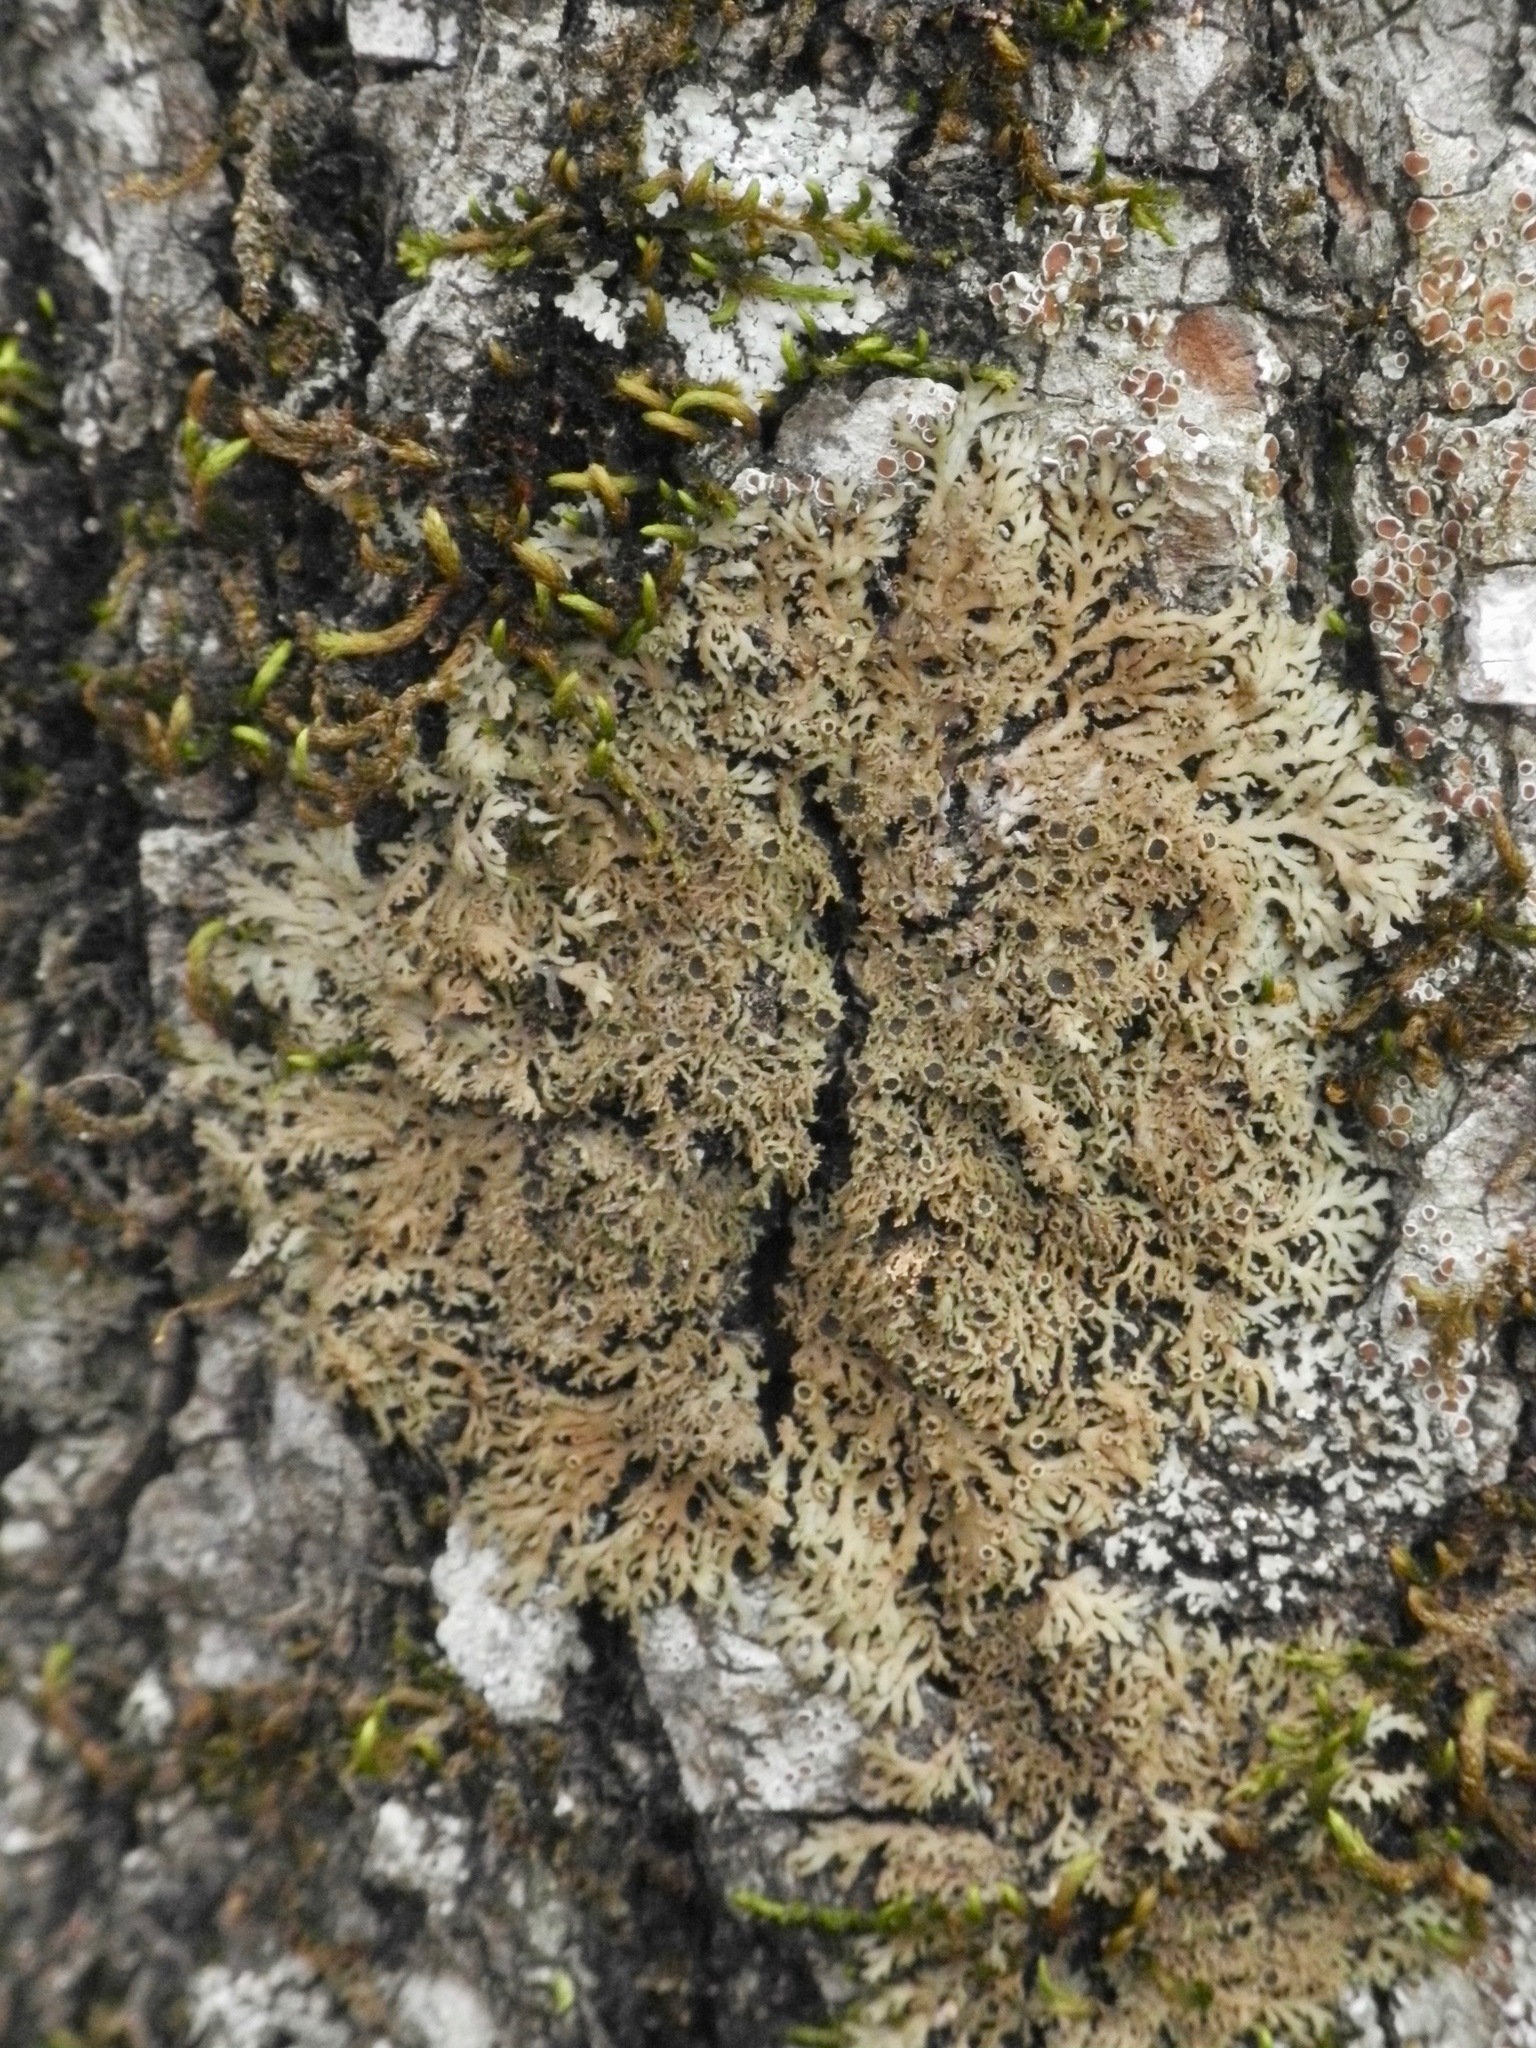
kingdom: Fungi
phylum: Ascomycota
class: Lecanoromycetes
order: Caliciales
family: Physciaceae
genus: Kurokawia
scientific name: Kurokawia palmulata
